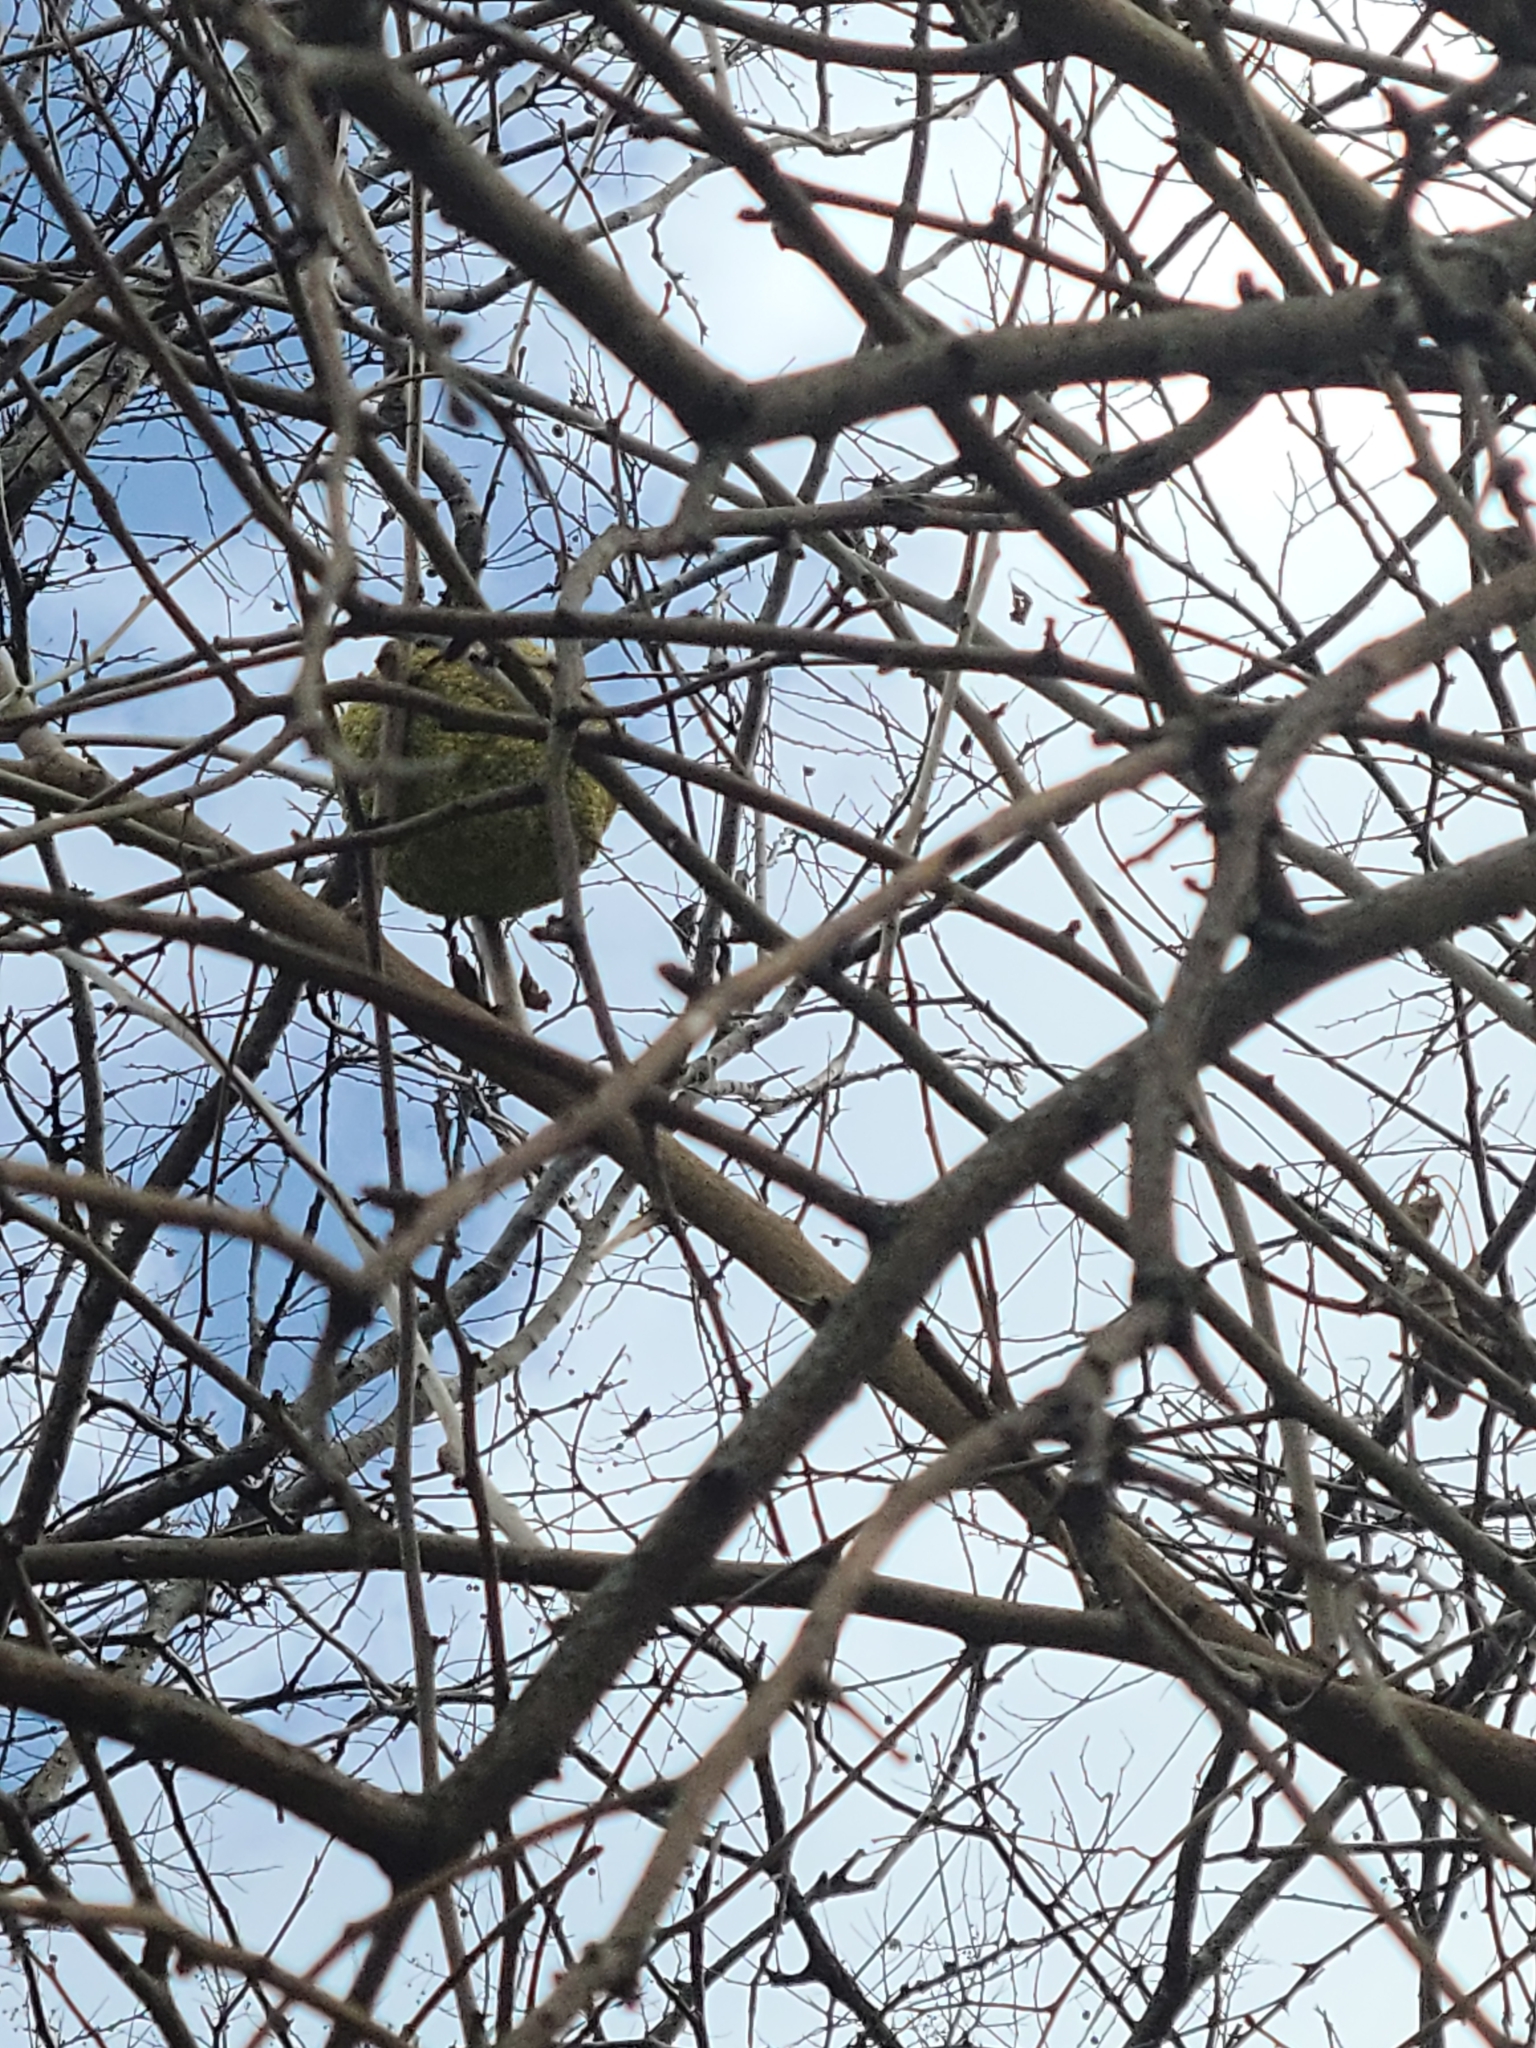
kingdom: Plantae
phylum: Tracheophyta
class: Magnoliopsida
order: Rosales
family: Moraceae
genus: Maclura
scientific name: Maclura pomifera
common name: Osage-orange
